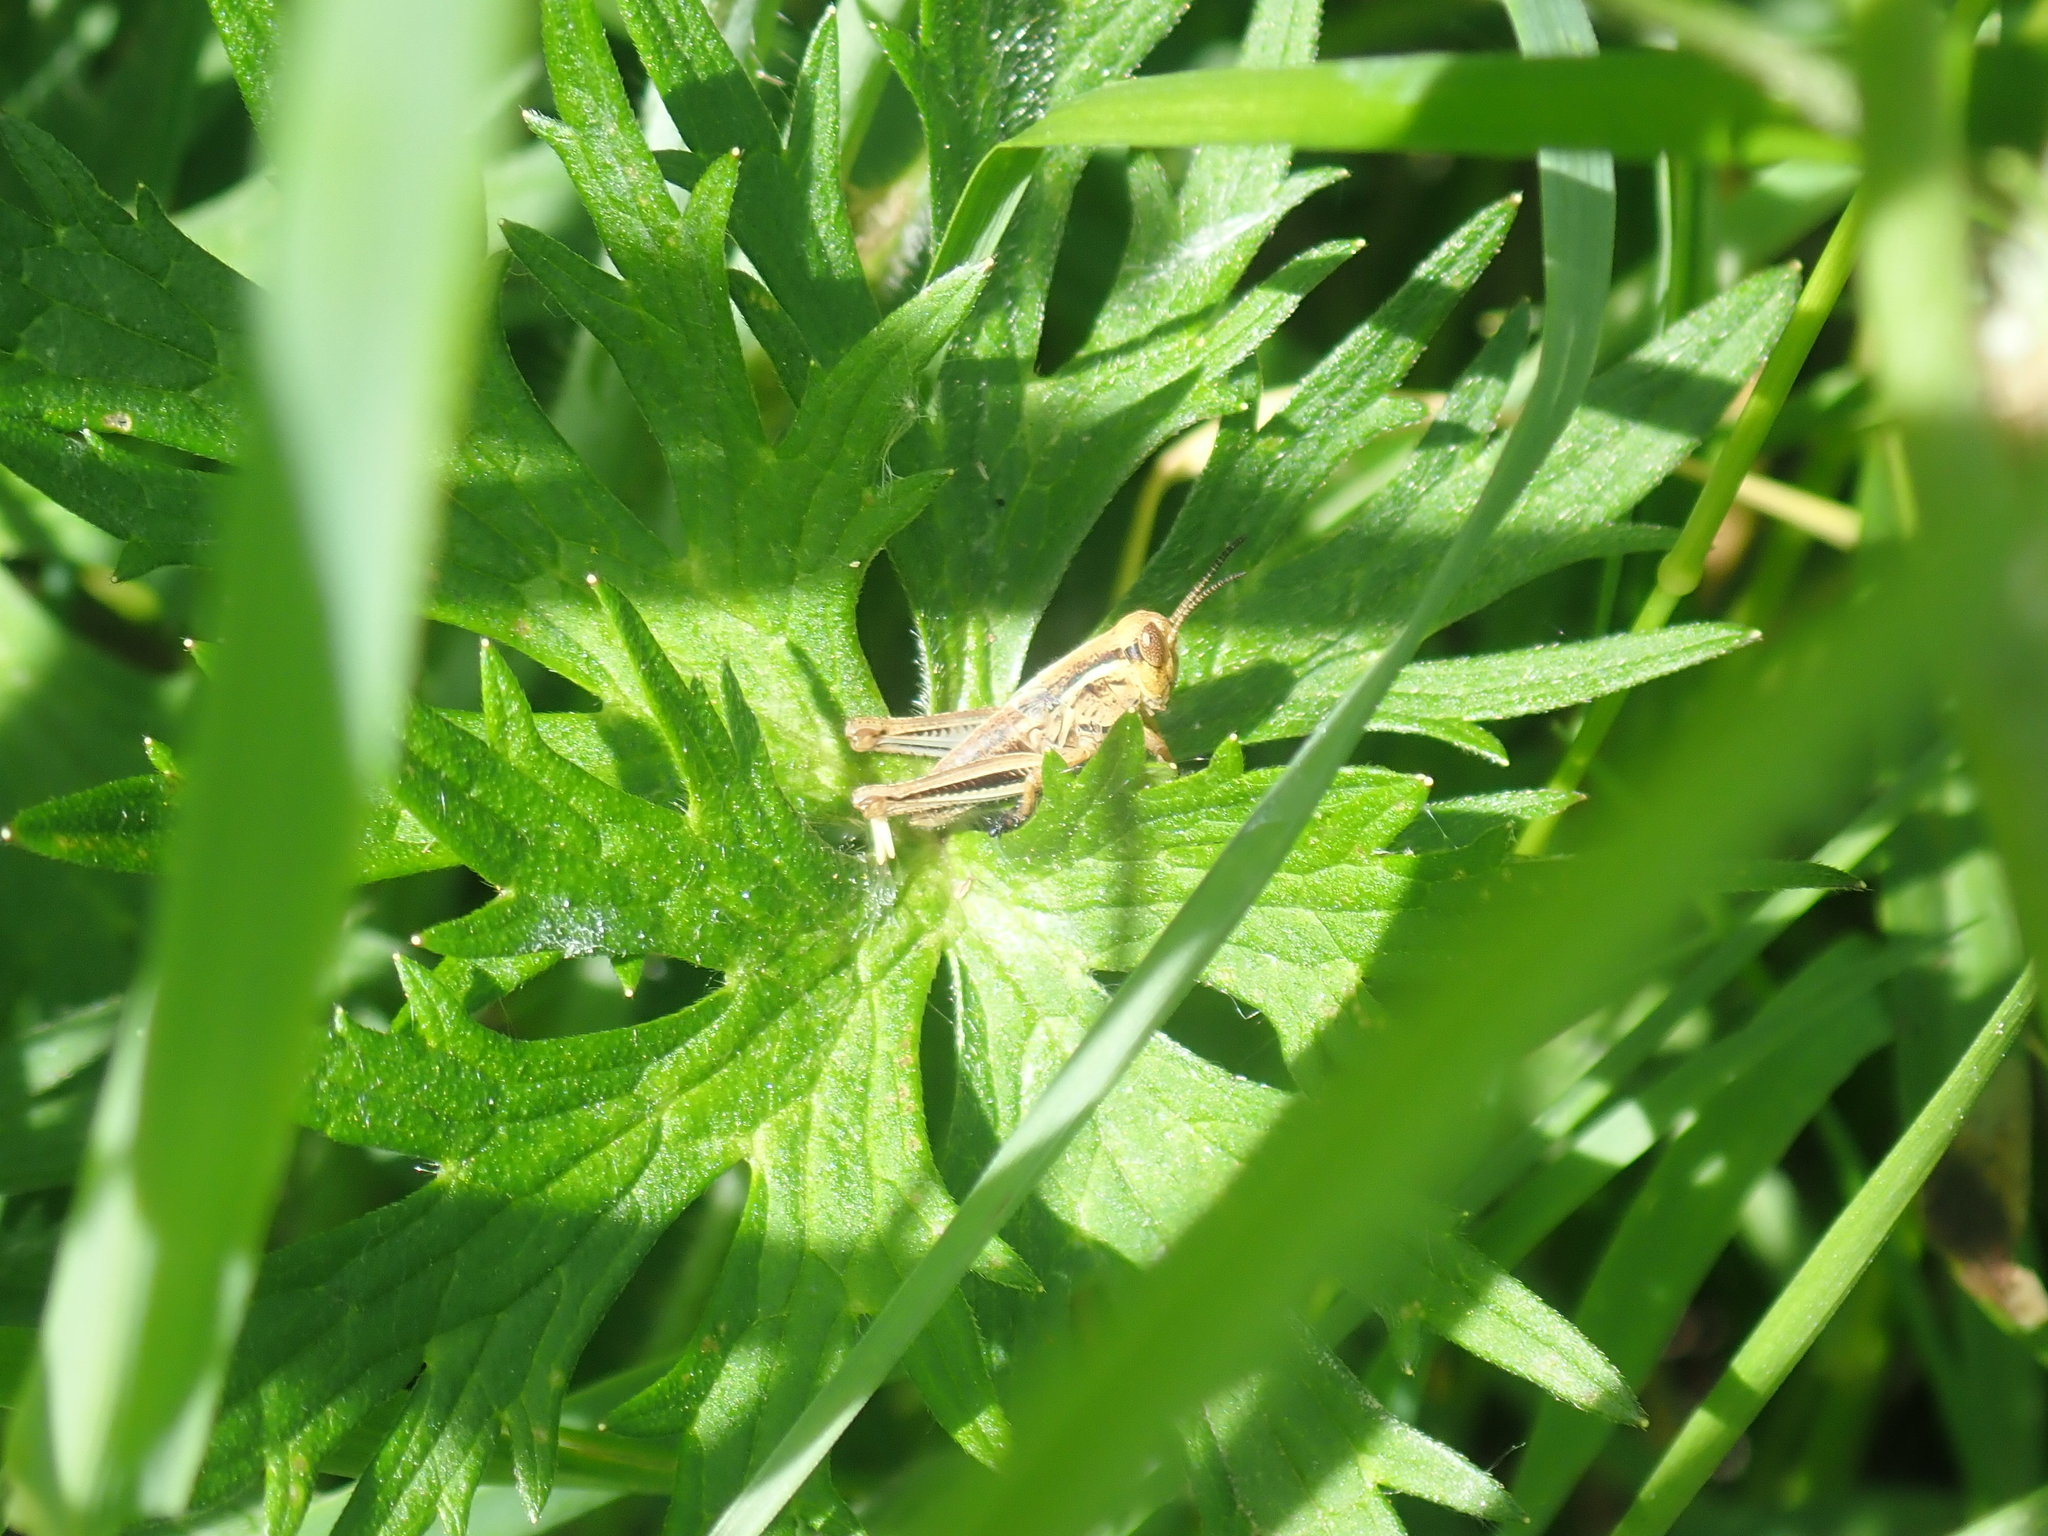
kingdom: Animalia
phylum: Arthropoda
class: Insecta
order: Orthoptera
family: Acrididae
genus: Melanoplus
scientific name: Melanoplus
